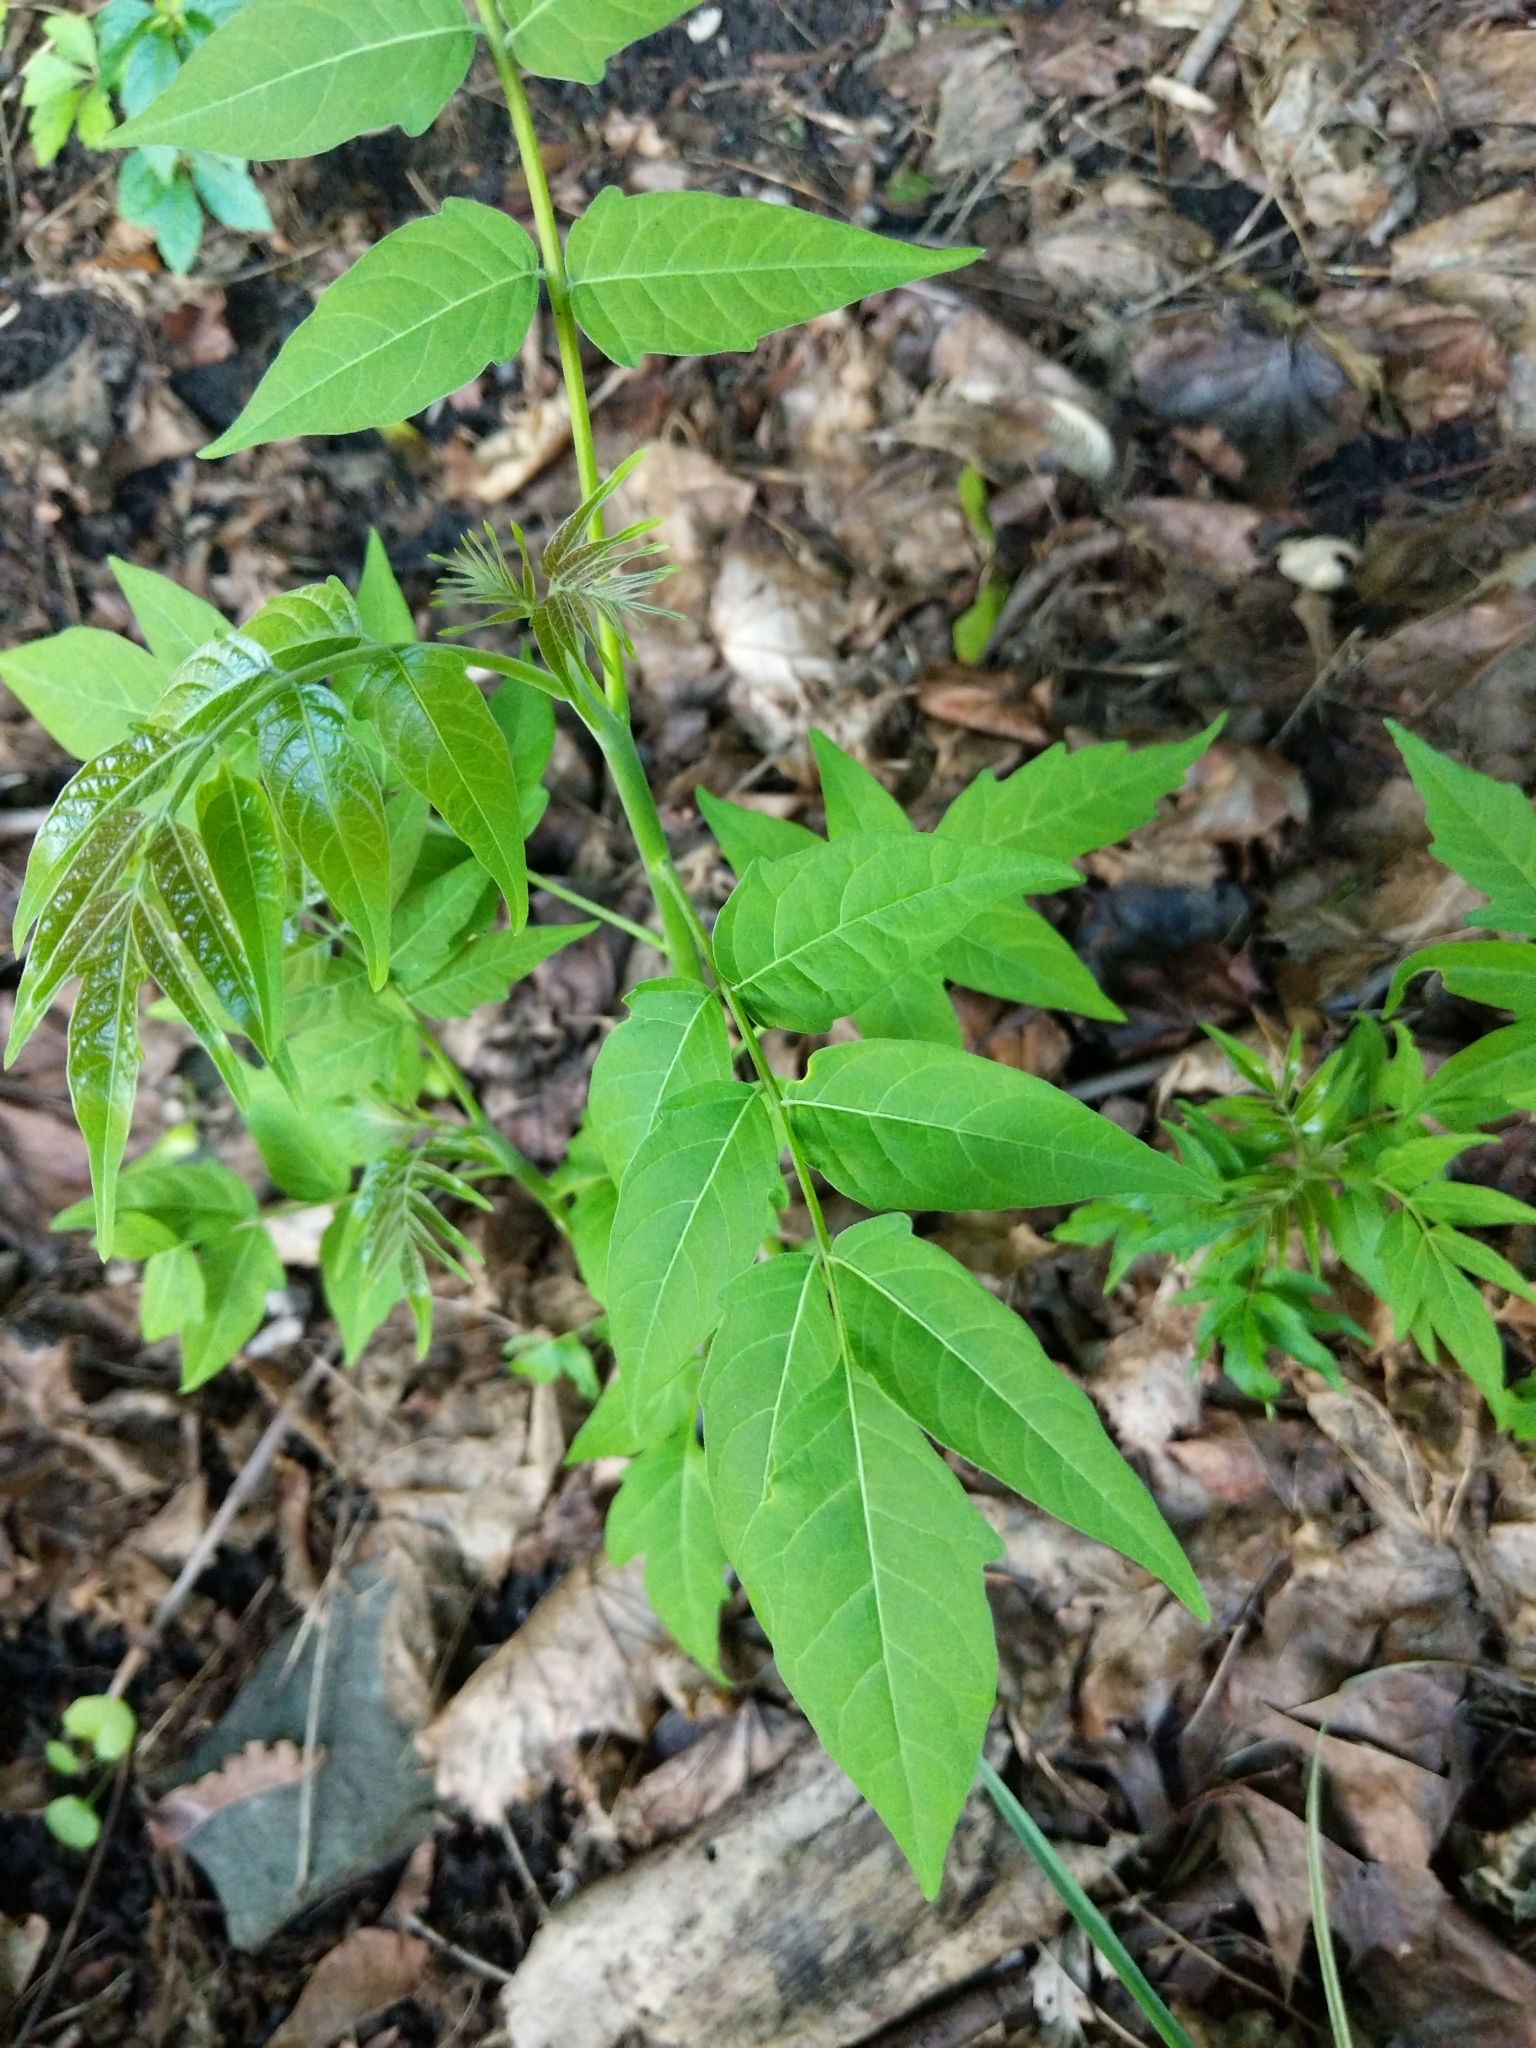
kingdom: Plantae
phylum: Tracheophyta
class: Magnoliopsida
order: Sapindales
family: Simaroubaceae
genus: Ailanthus
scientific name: Ailanthus altissima
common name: Tree-of-heaven
